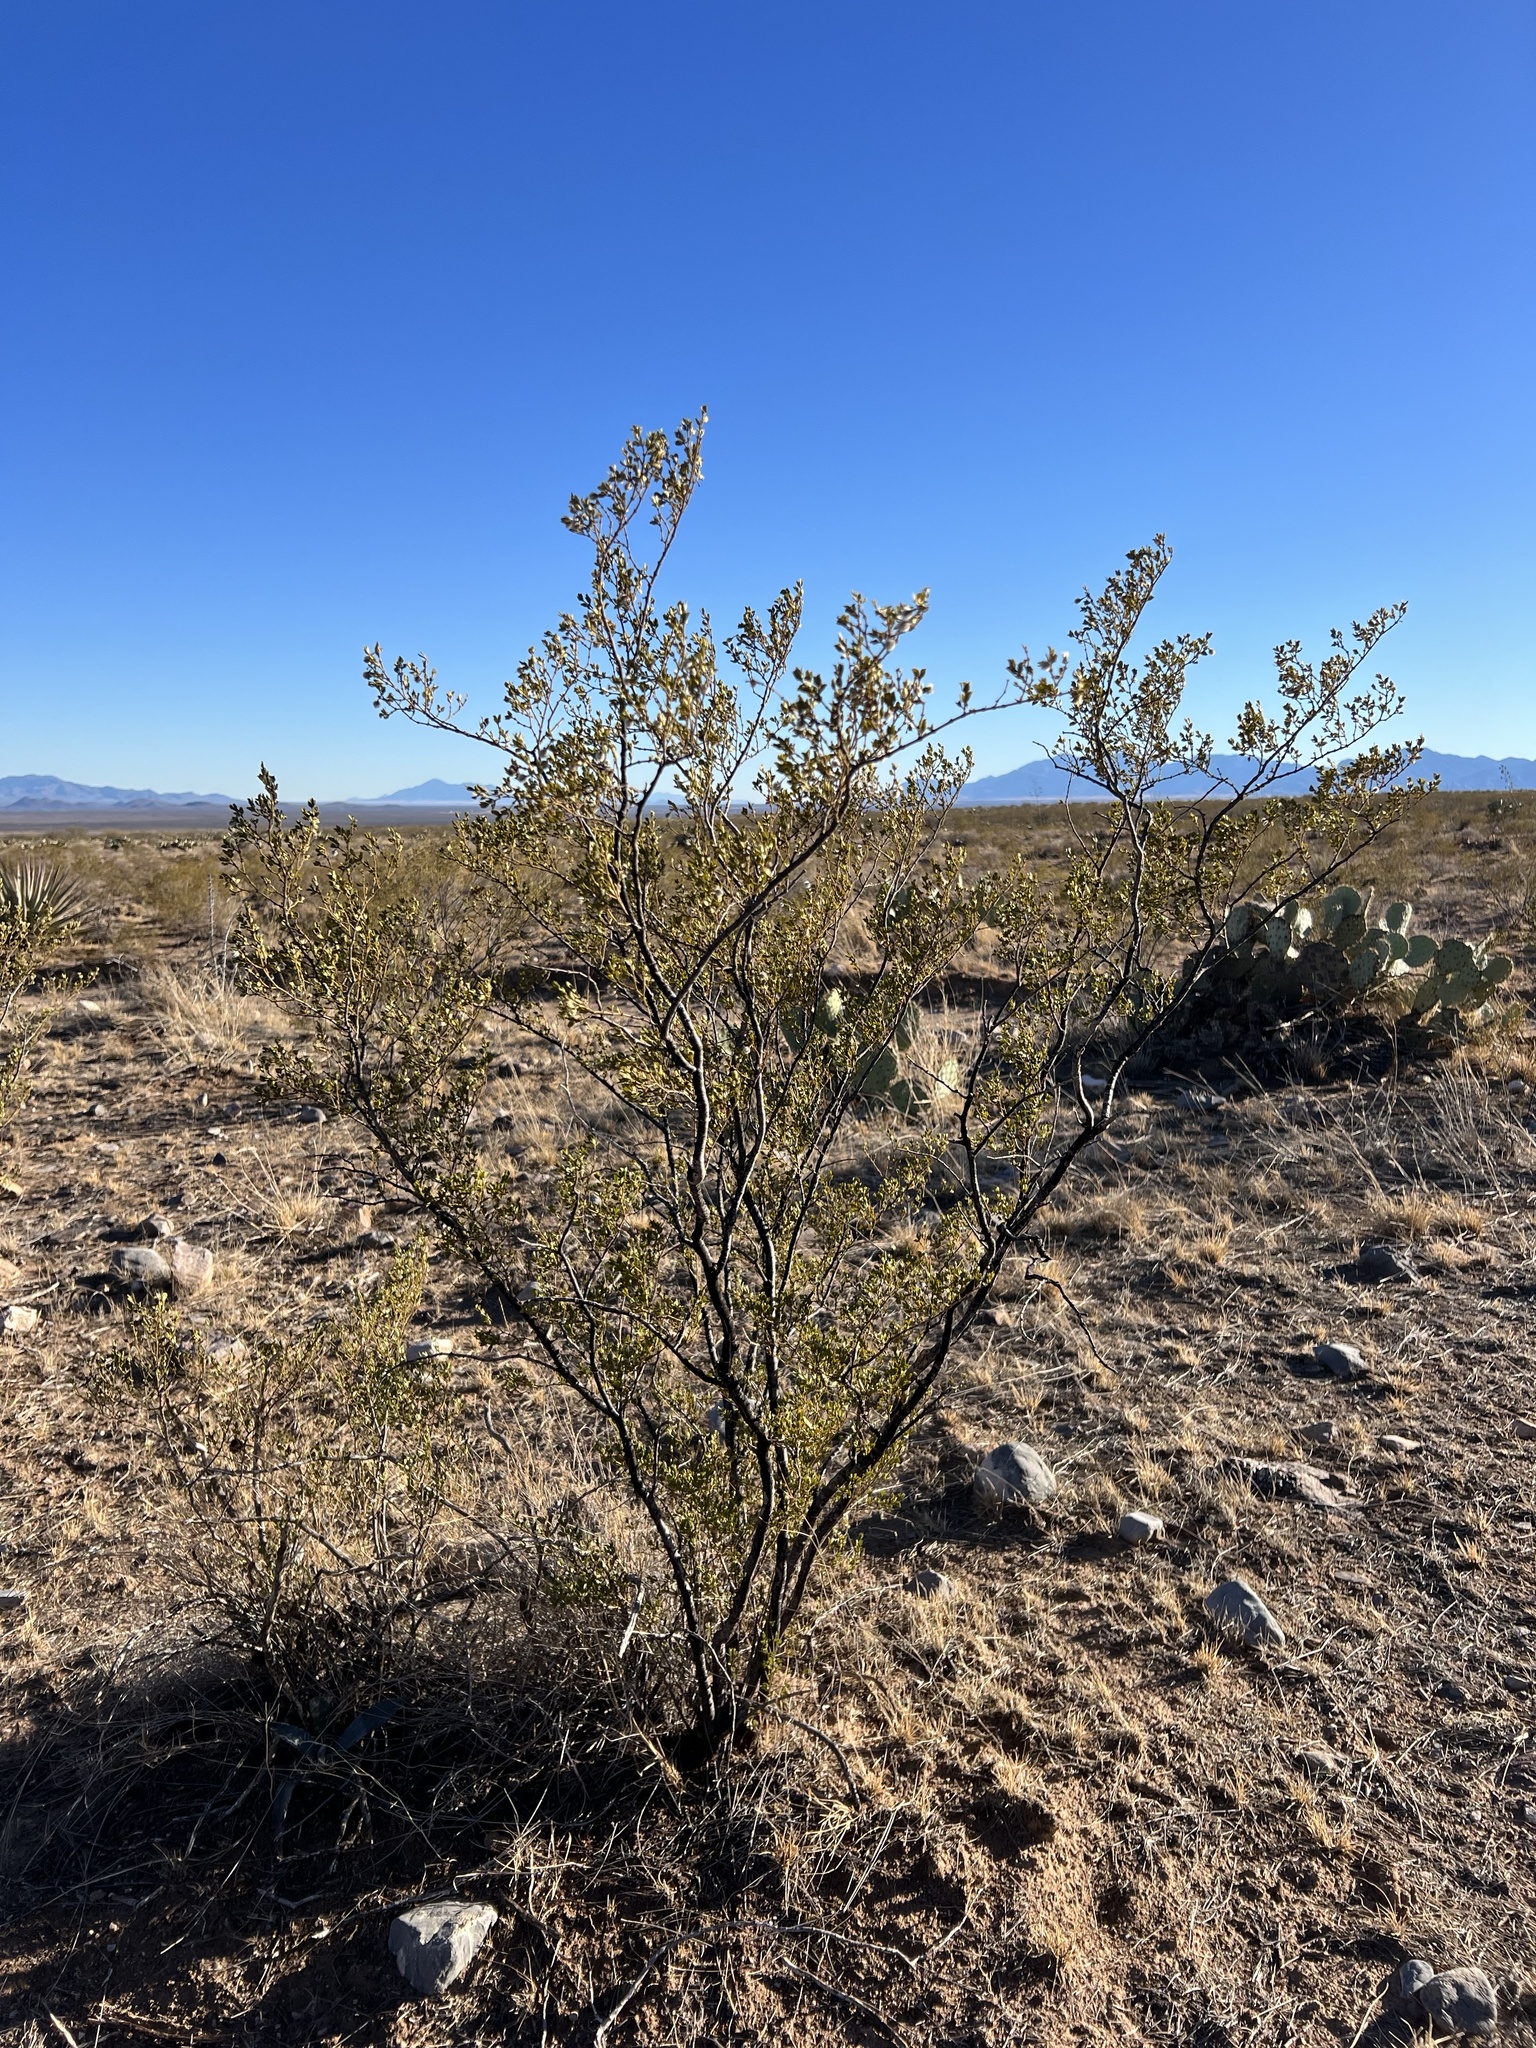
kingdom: Plantae
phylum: Tracheophyta
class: Magnoliopsida
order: Zygophyllales
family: Zygophyllaceae
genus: Larrea
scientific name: Larrea tridentata
